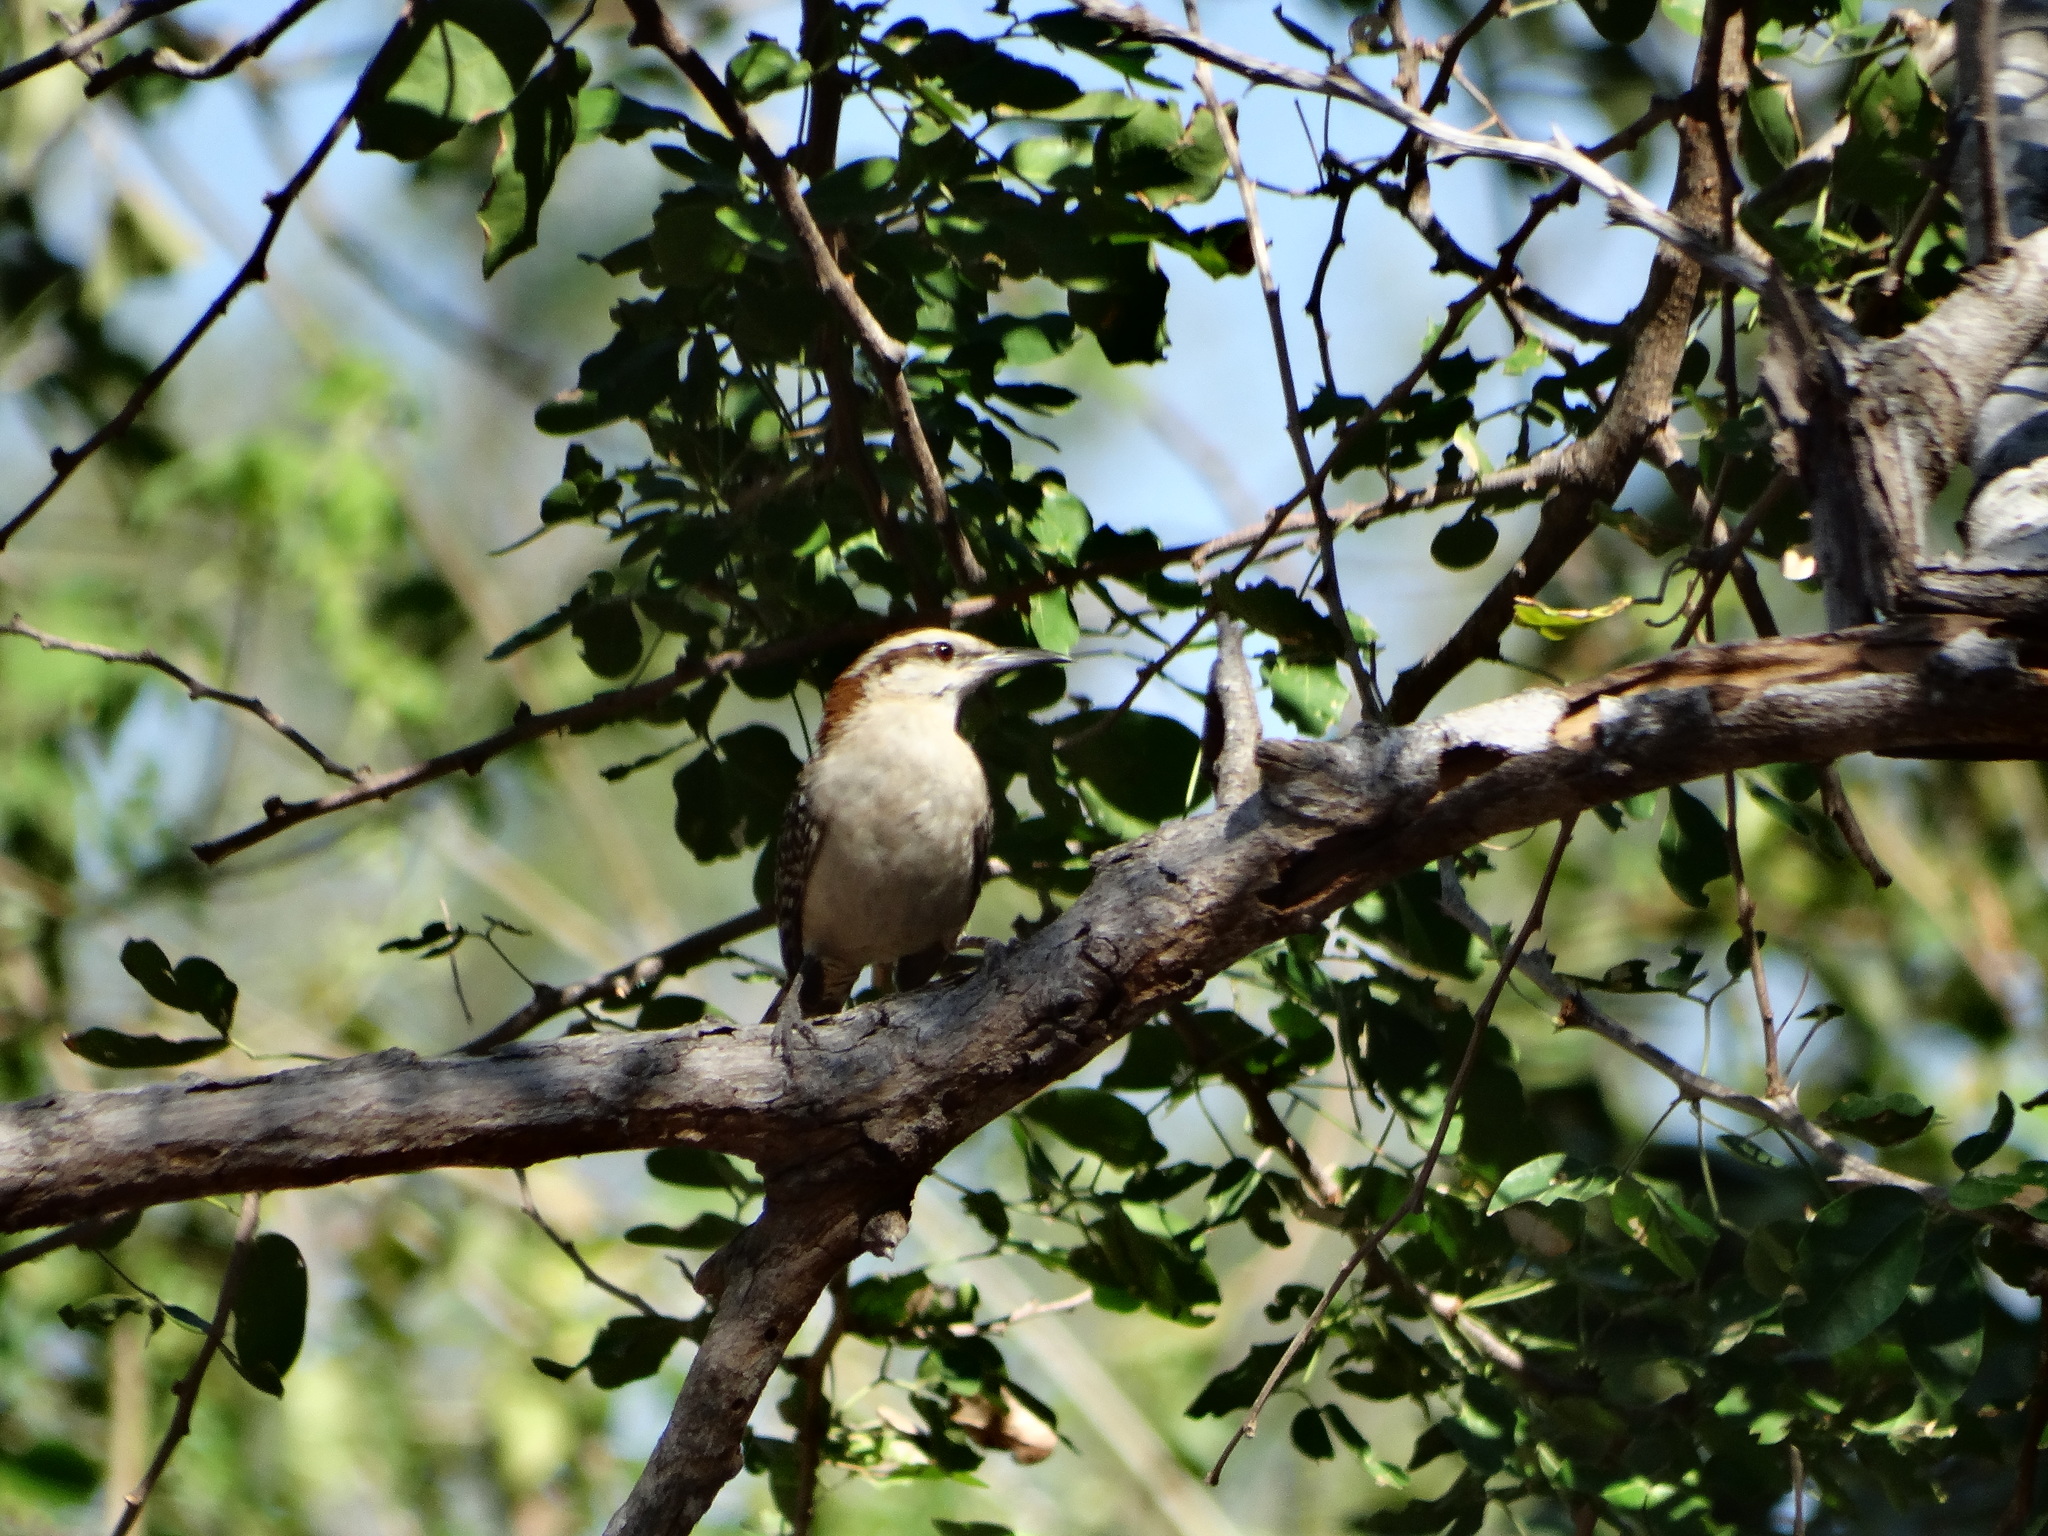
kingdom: Animalia
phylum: Chordata
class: Aves
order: Passeriformes
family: Troglodytidae
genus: Campylorhynchus
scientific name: Campylorhynchus rufinucha
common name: Rufous-naped wren
